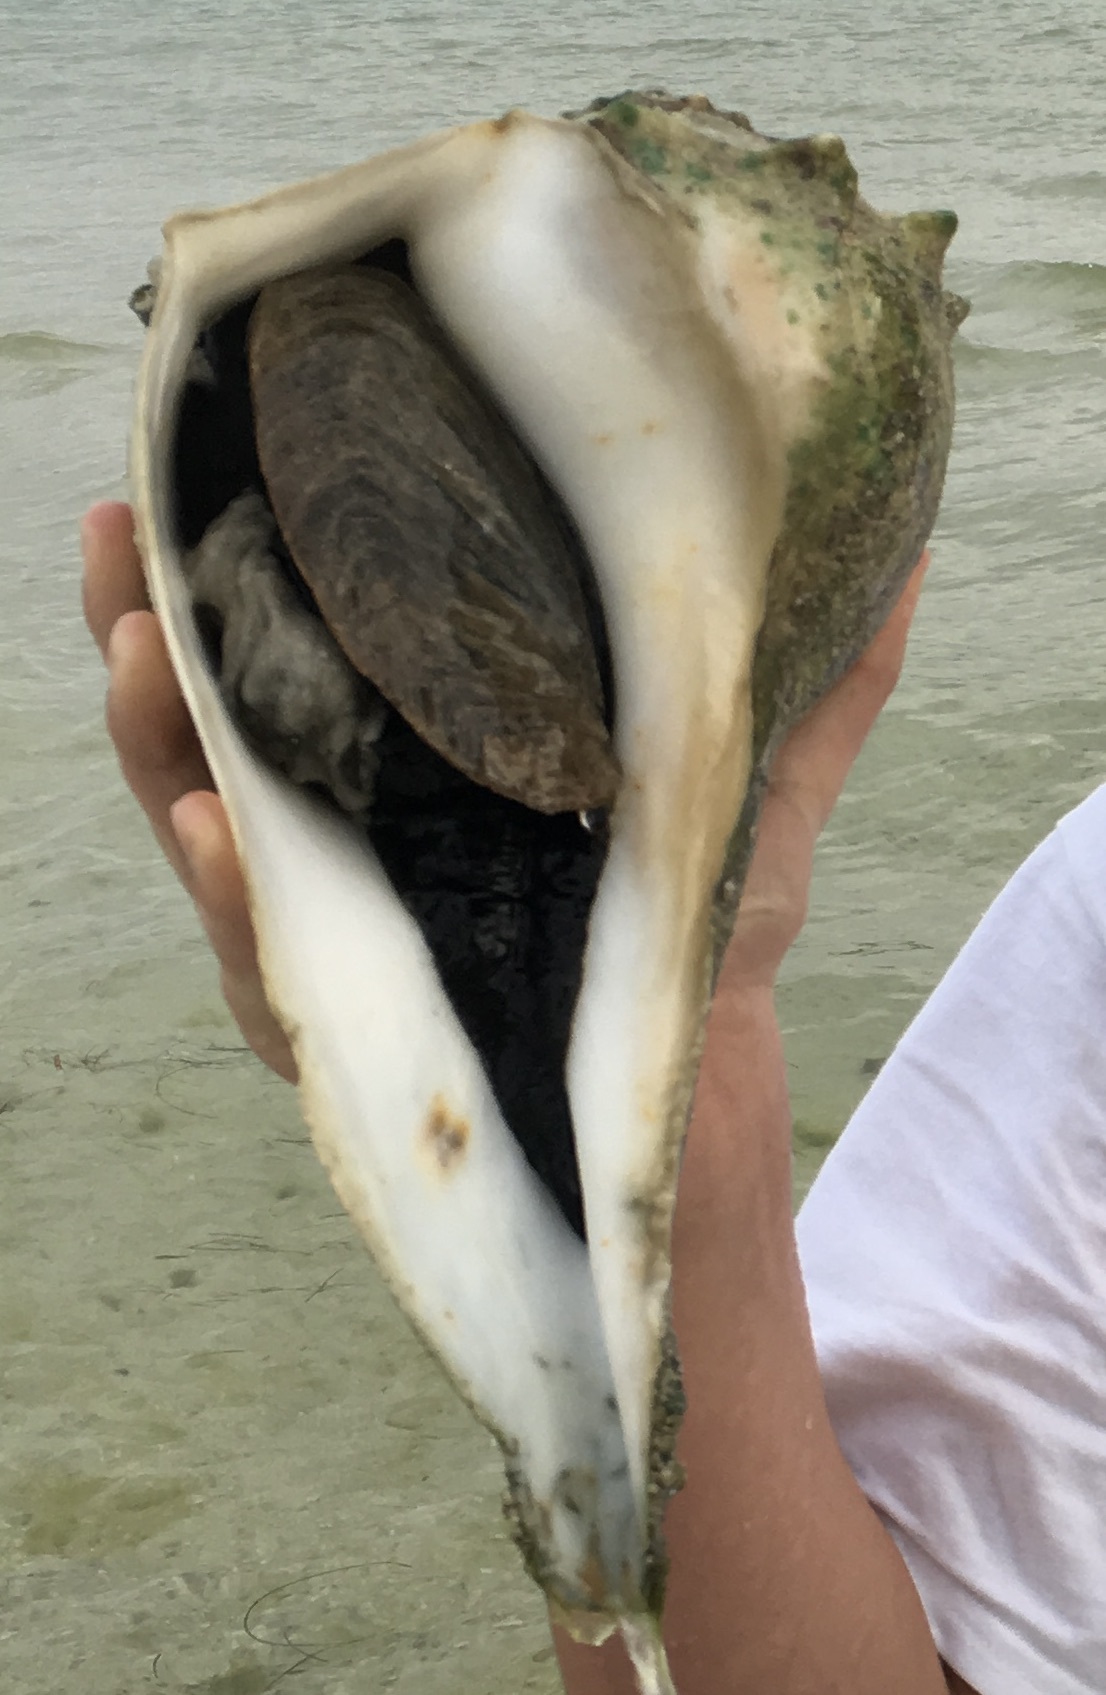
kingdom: Animalia
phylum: Mollusca
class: Gastropoda
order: Neogastropoda
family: Busyconidae
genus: Sinistrofulgur
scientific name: Sinistrofulgur sinistrum
